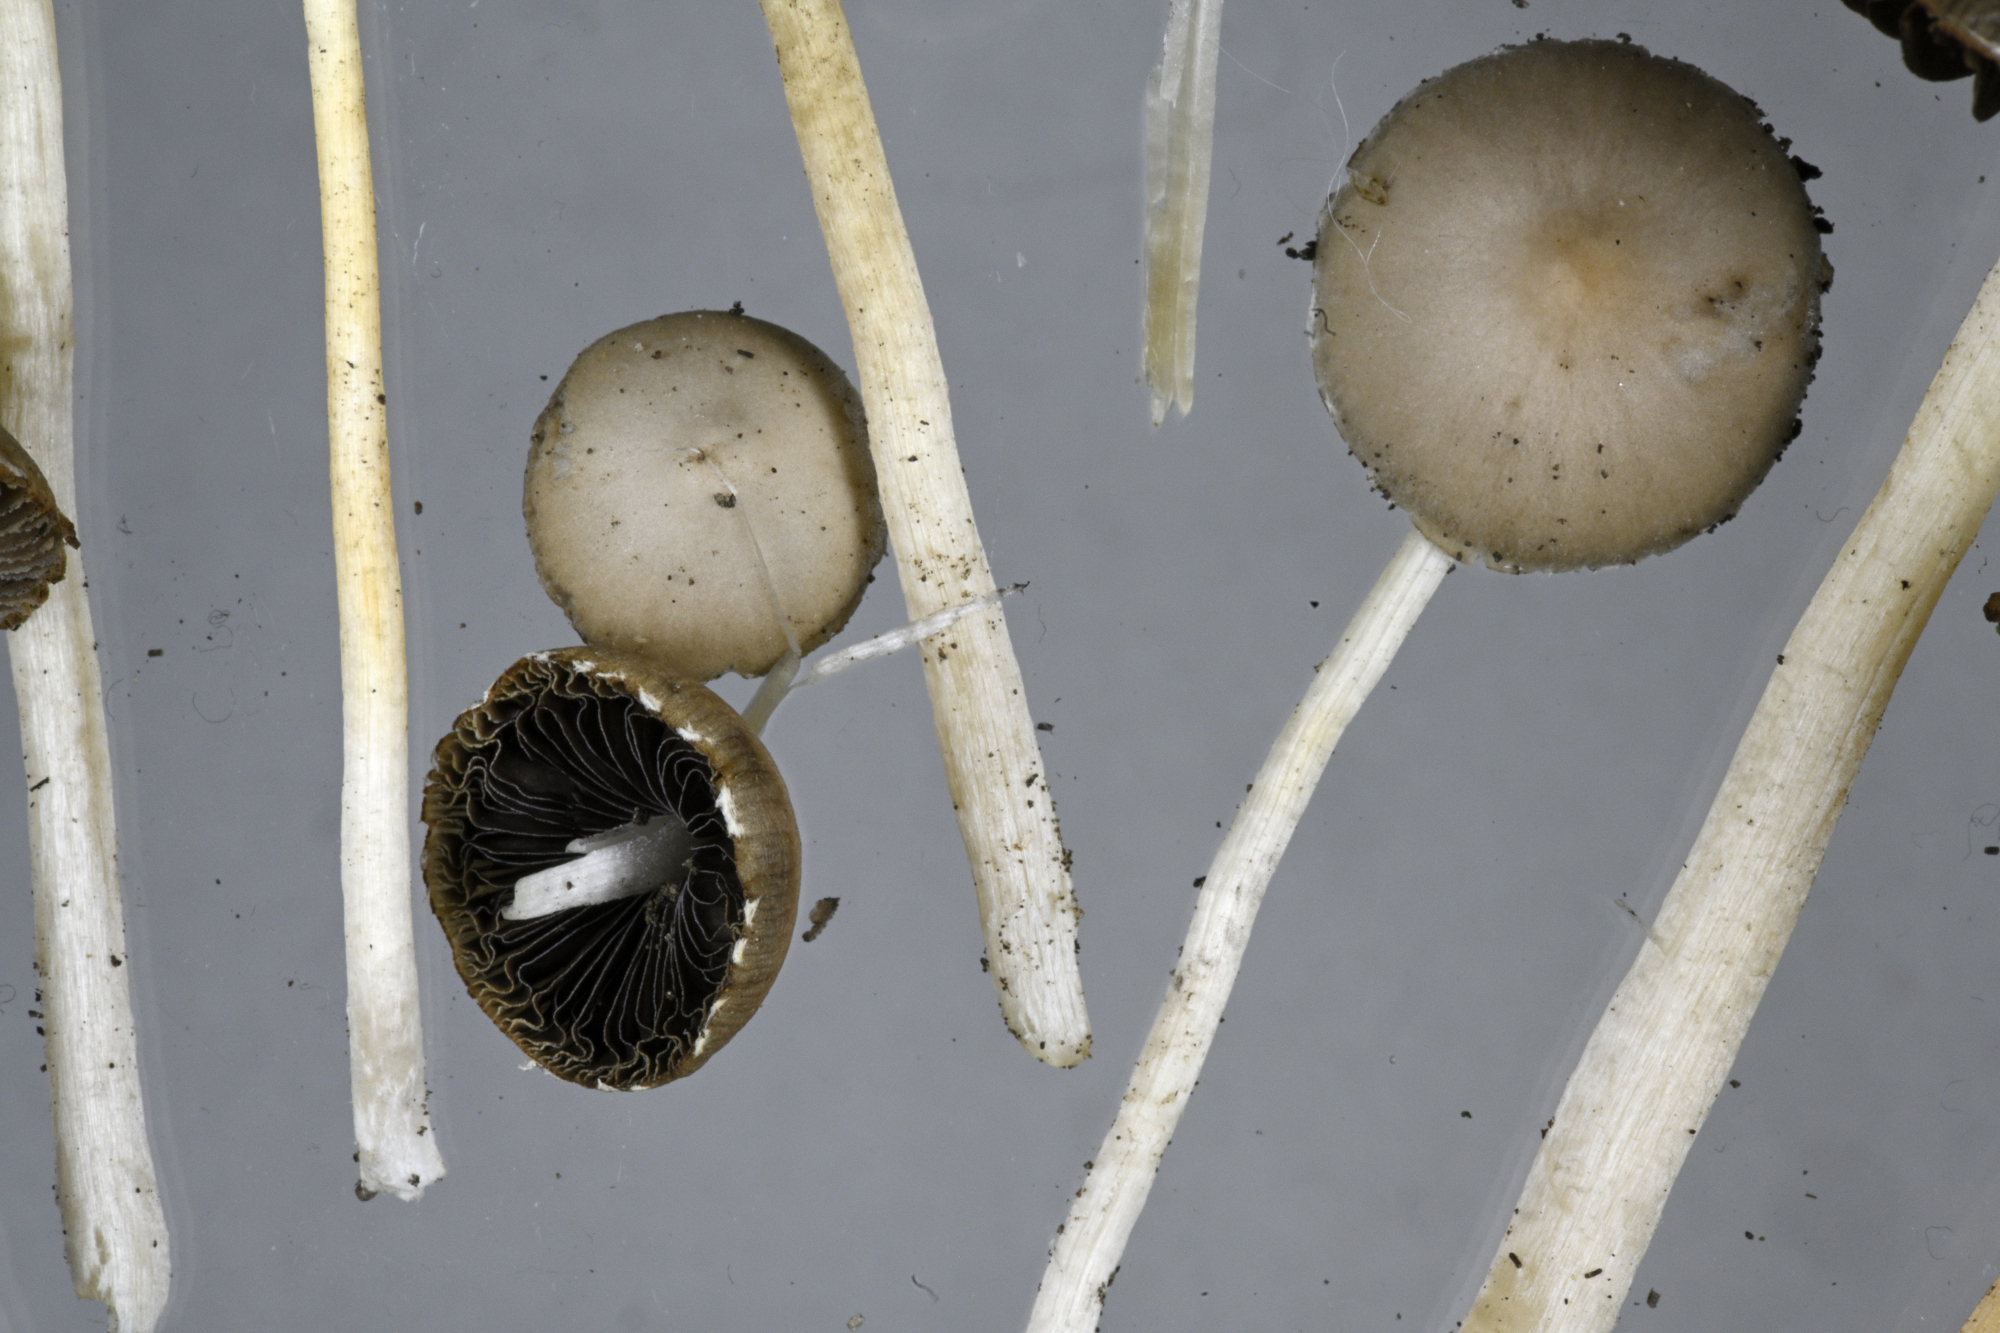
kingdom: Fungi
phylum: Basidiomycota
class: Agaricomycetes
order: Agaricales
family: Psathyrellaceae
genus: Coprinopsis
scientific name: Coprinopsis pseudomarcescibilis
